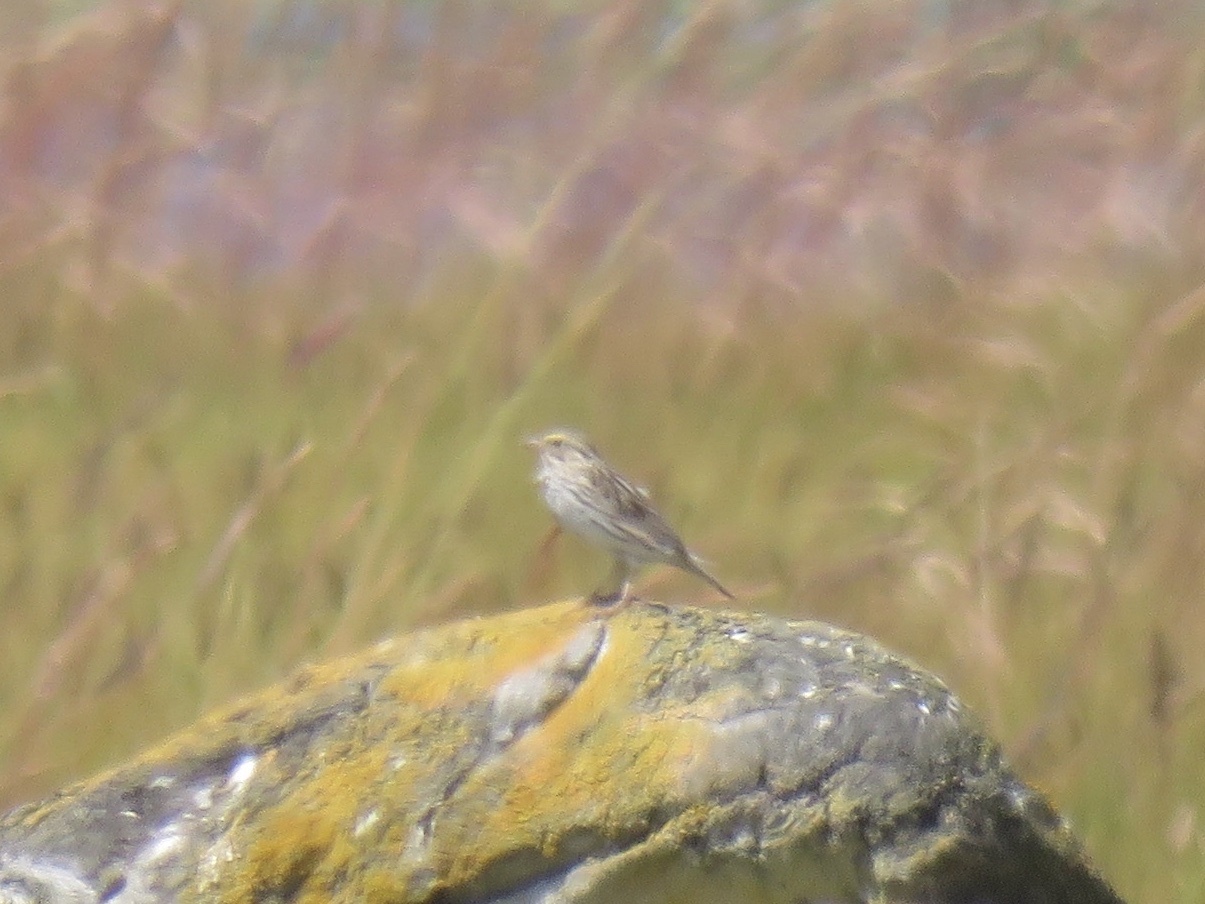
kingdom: Animalia
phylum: Chordata
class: Aves
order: Passeriformes
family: Passerellidae
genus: Passerculus
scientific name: Passerculus sandwichensis
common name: Savannah sparrow
